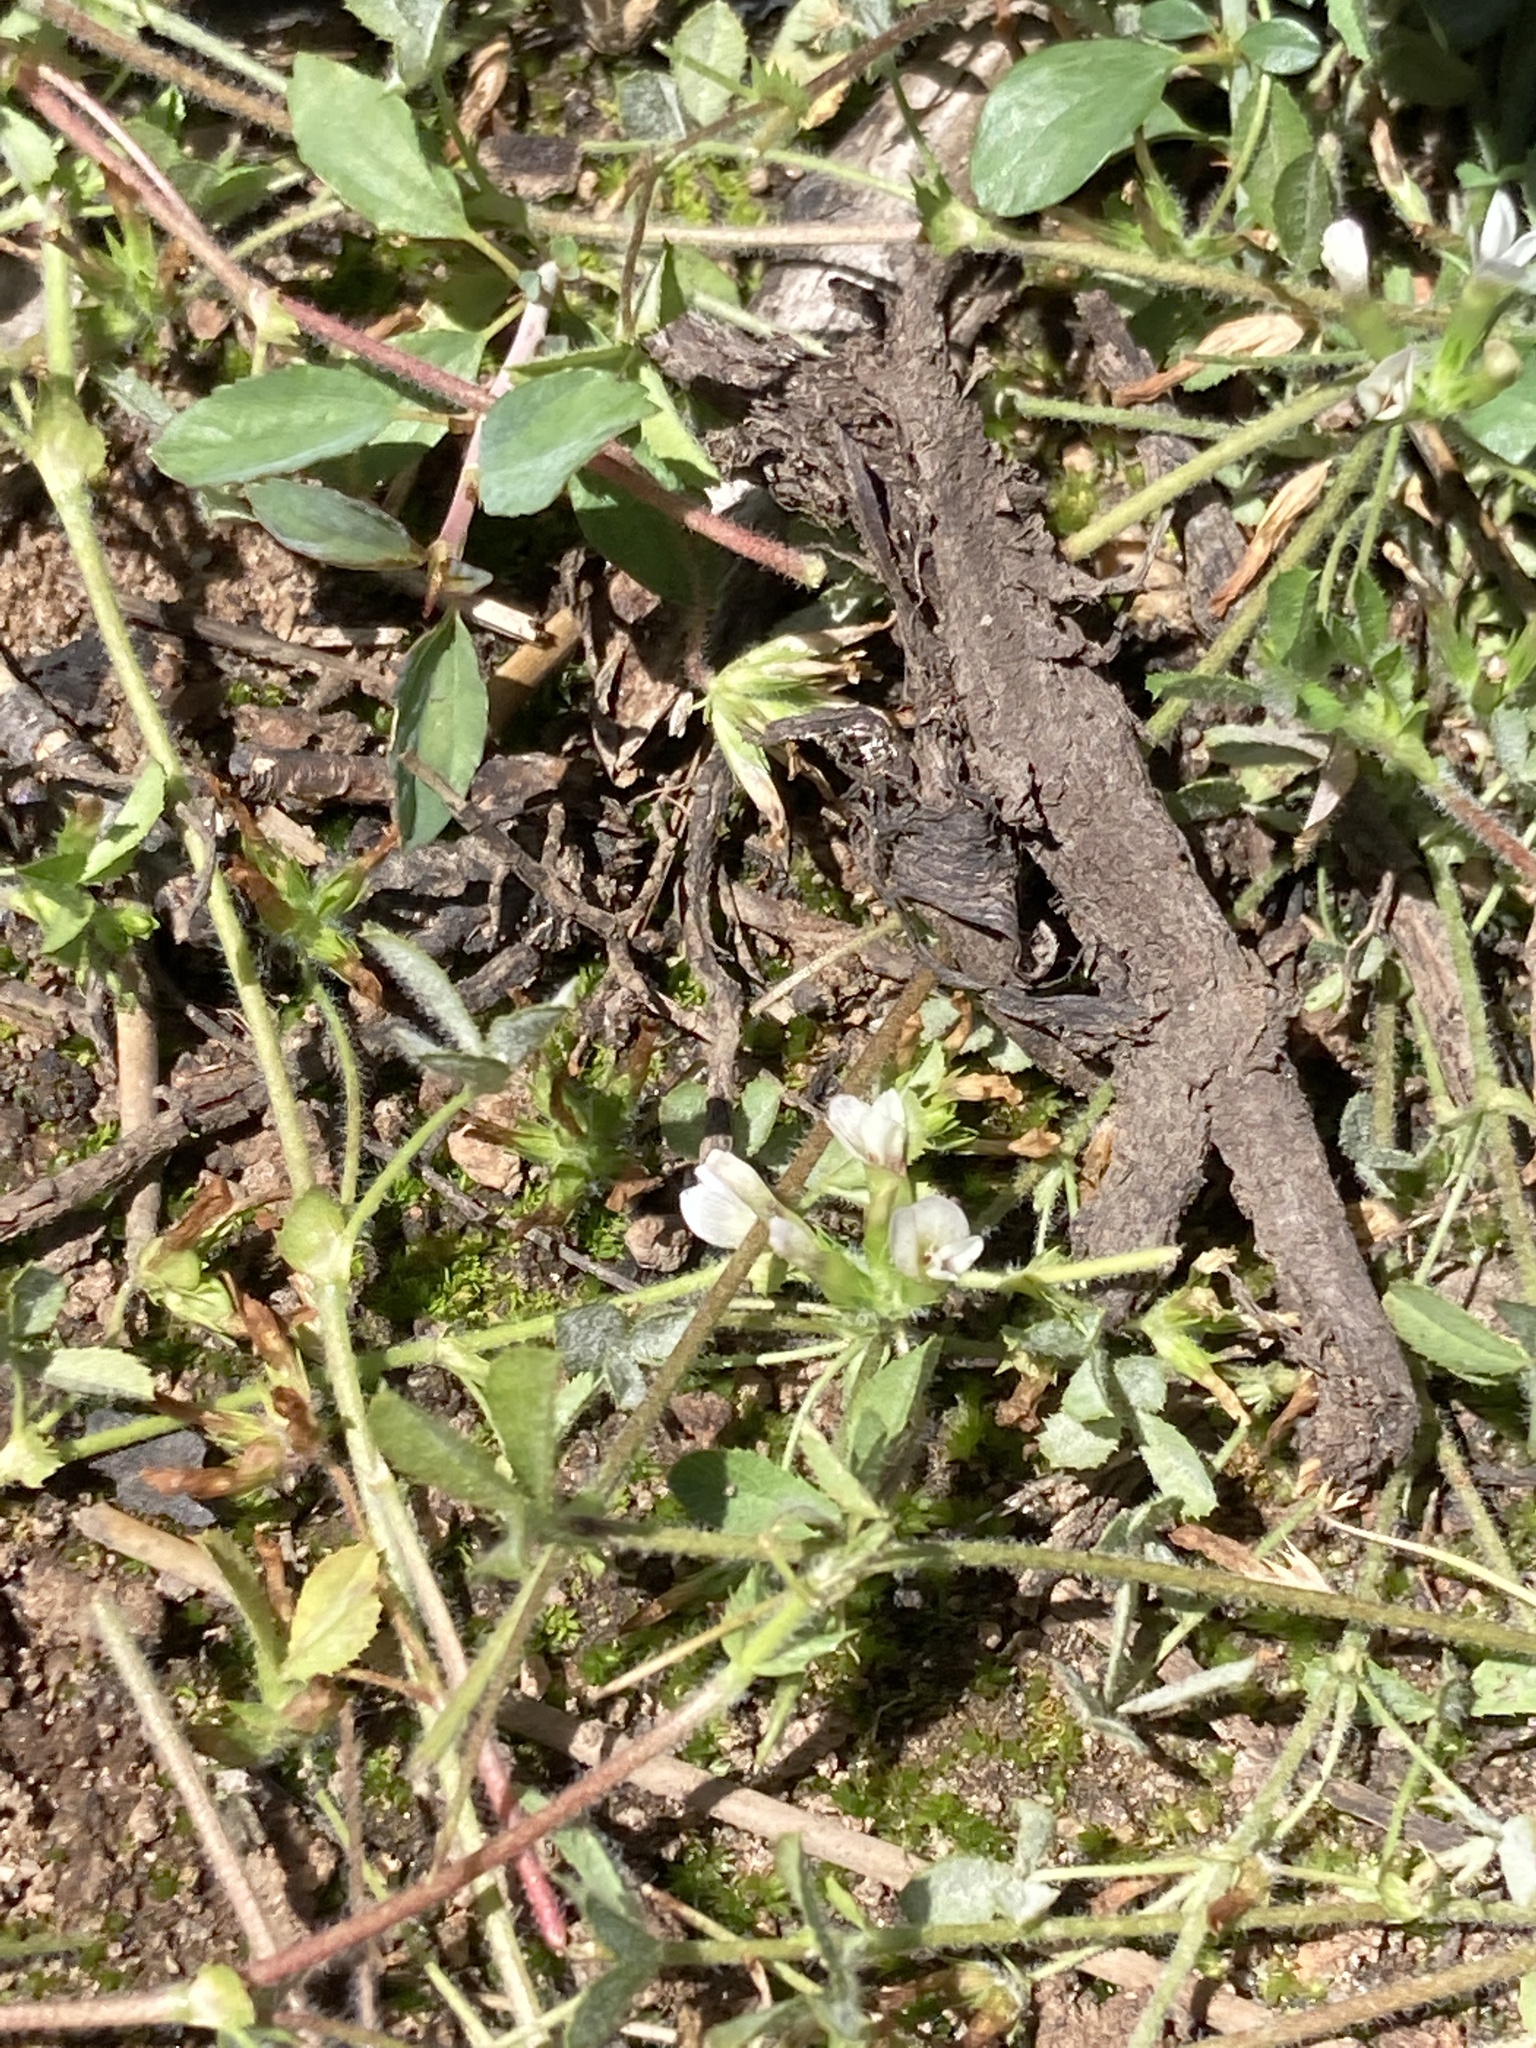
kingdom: Plantae
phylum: Tracheophyta
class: Magnoliopsida
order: Fabales
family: Fabaceae
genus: Trifolium
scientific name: Trifolium monanthum
